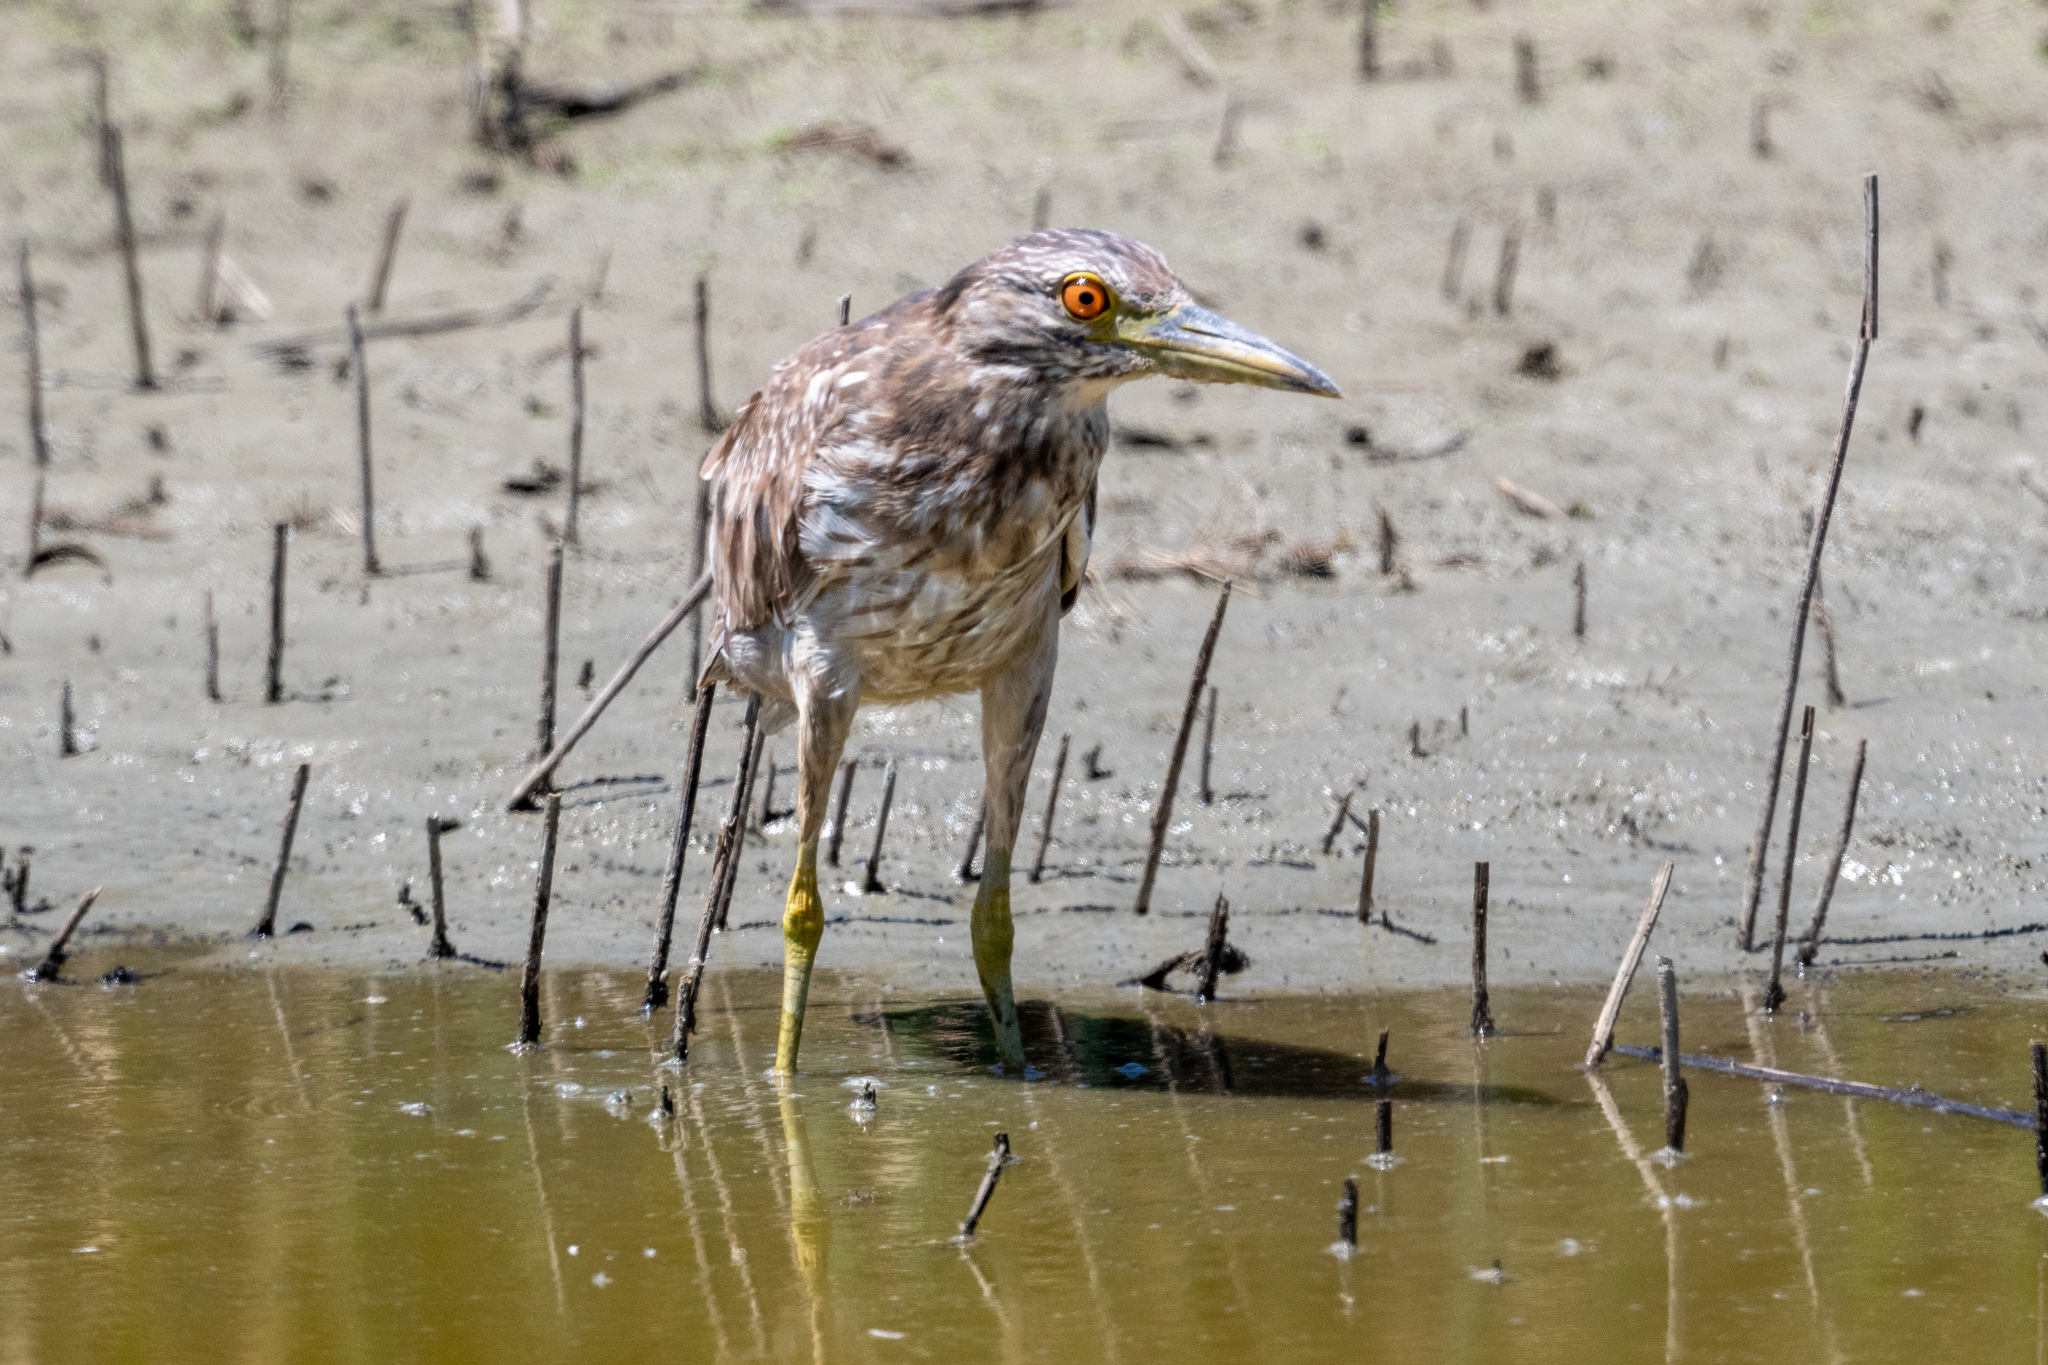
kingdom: Animalia
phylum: Chordata
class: Aves
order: Pelecaniformes
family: Ardeidae
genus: Nycticorax
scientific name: Nycticorax nycticorax
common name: Black-crowned night heron
